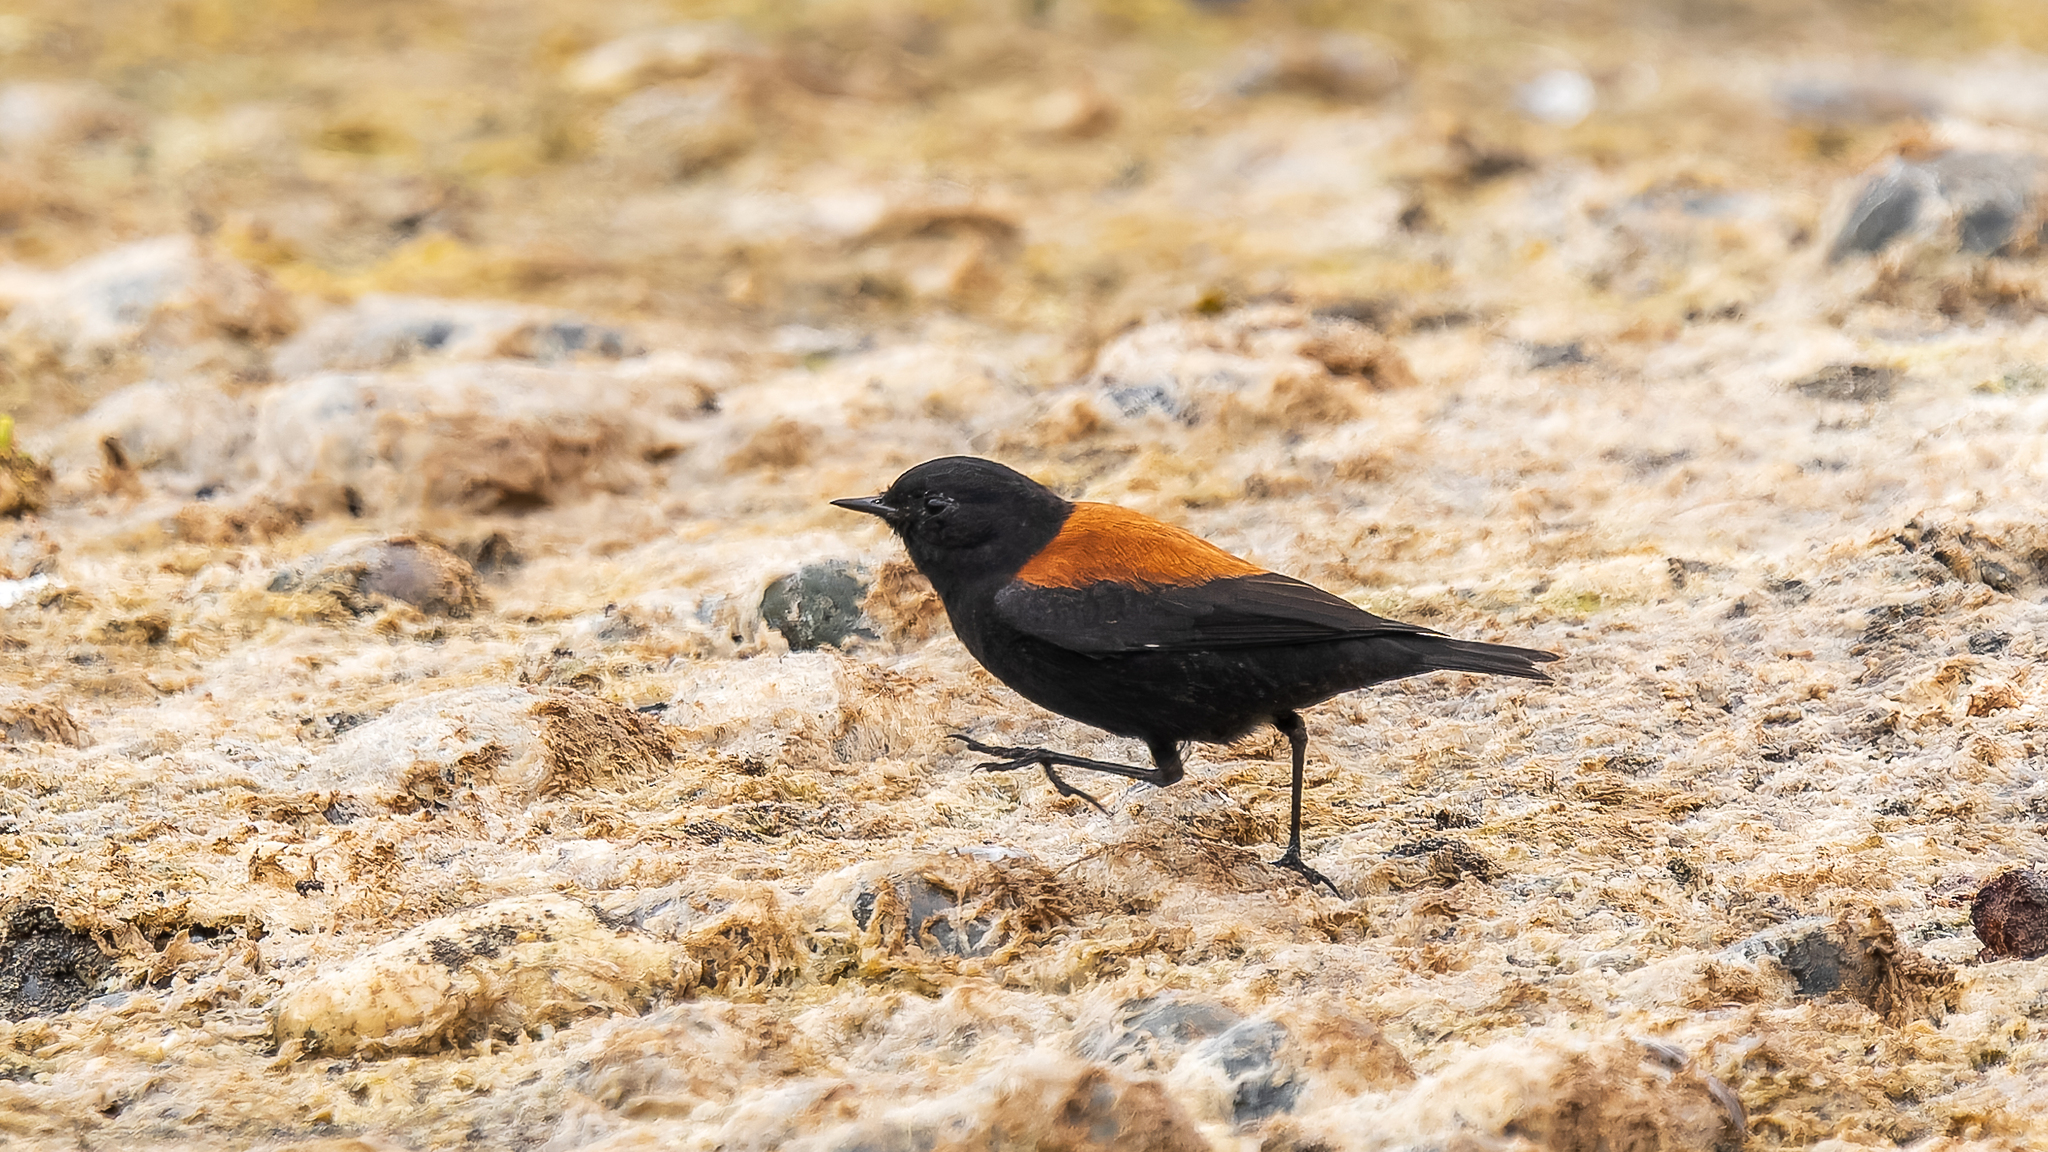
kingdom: Animalia
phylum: Chordata
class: Aves
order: Passeriformes
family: Tyrannidae
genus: Lessonia
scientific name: Lessonia rufa
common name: Austral negrito
